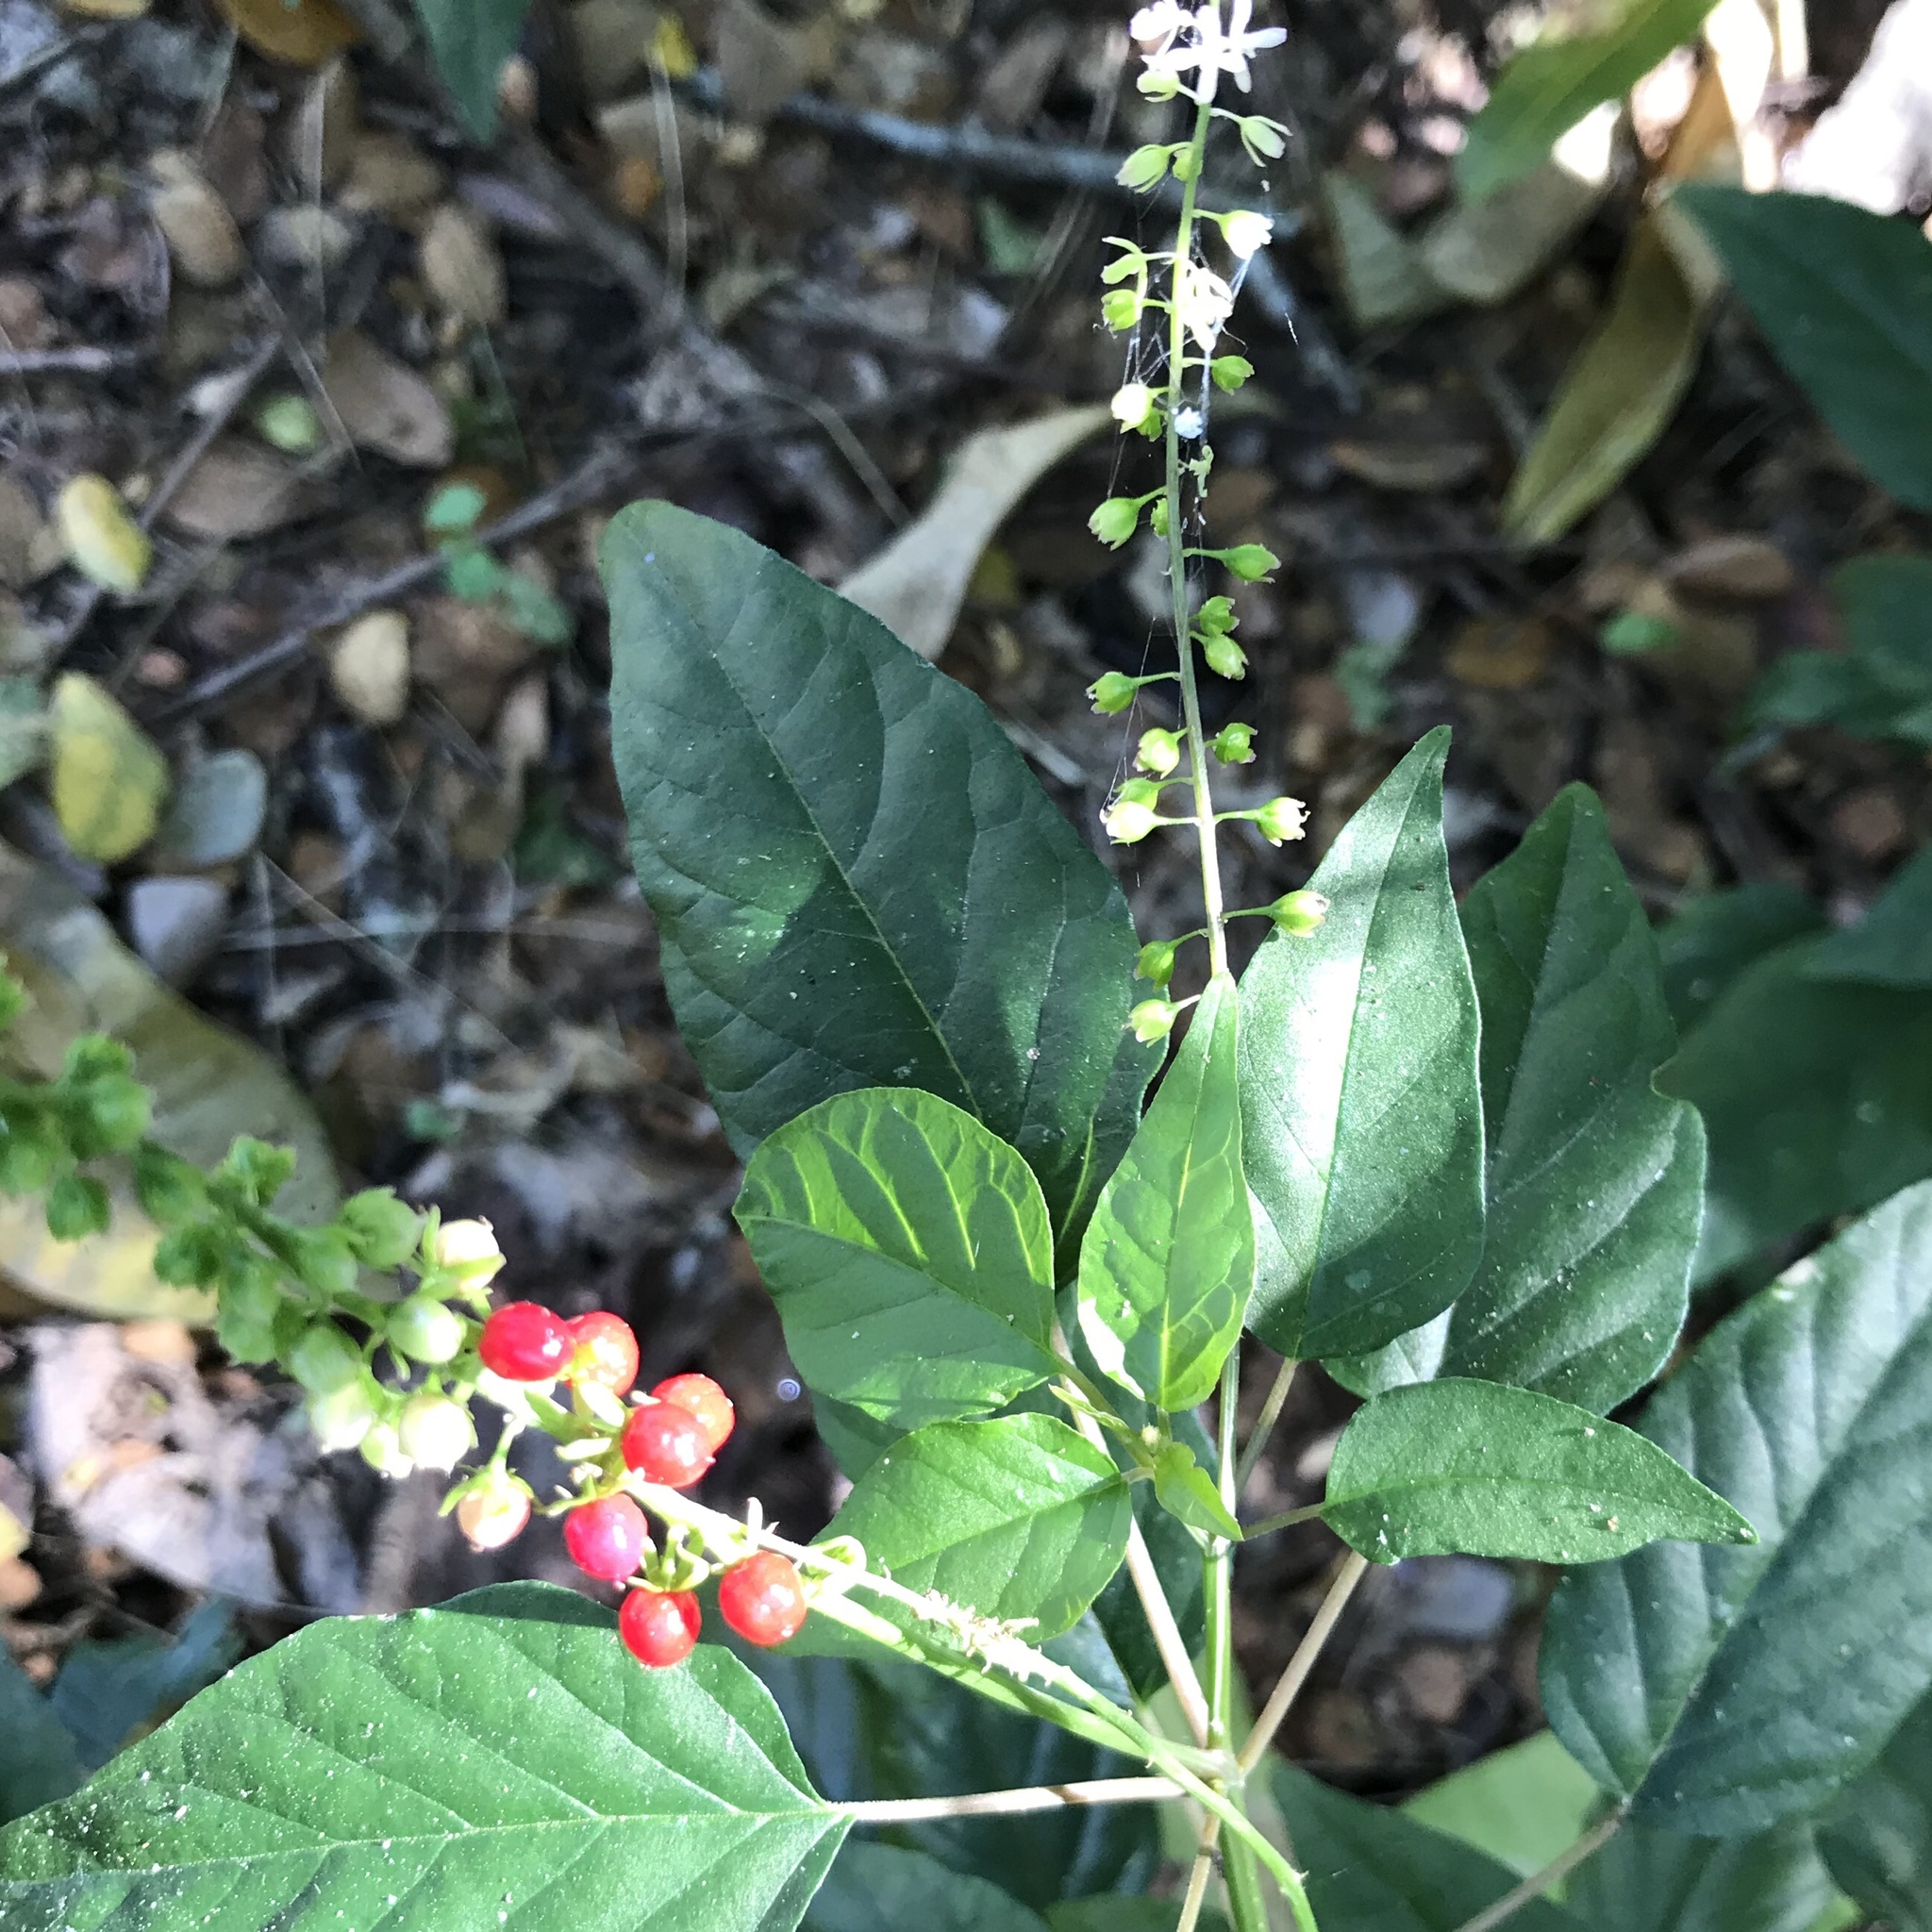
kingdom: Plantae
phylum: Tracheophyta
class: Magnoliopsida
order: Caryophyllales
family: Phytolaccaceae
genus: Rivina
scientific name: Rivina humilis
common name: Rougeplant
